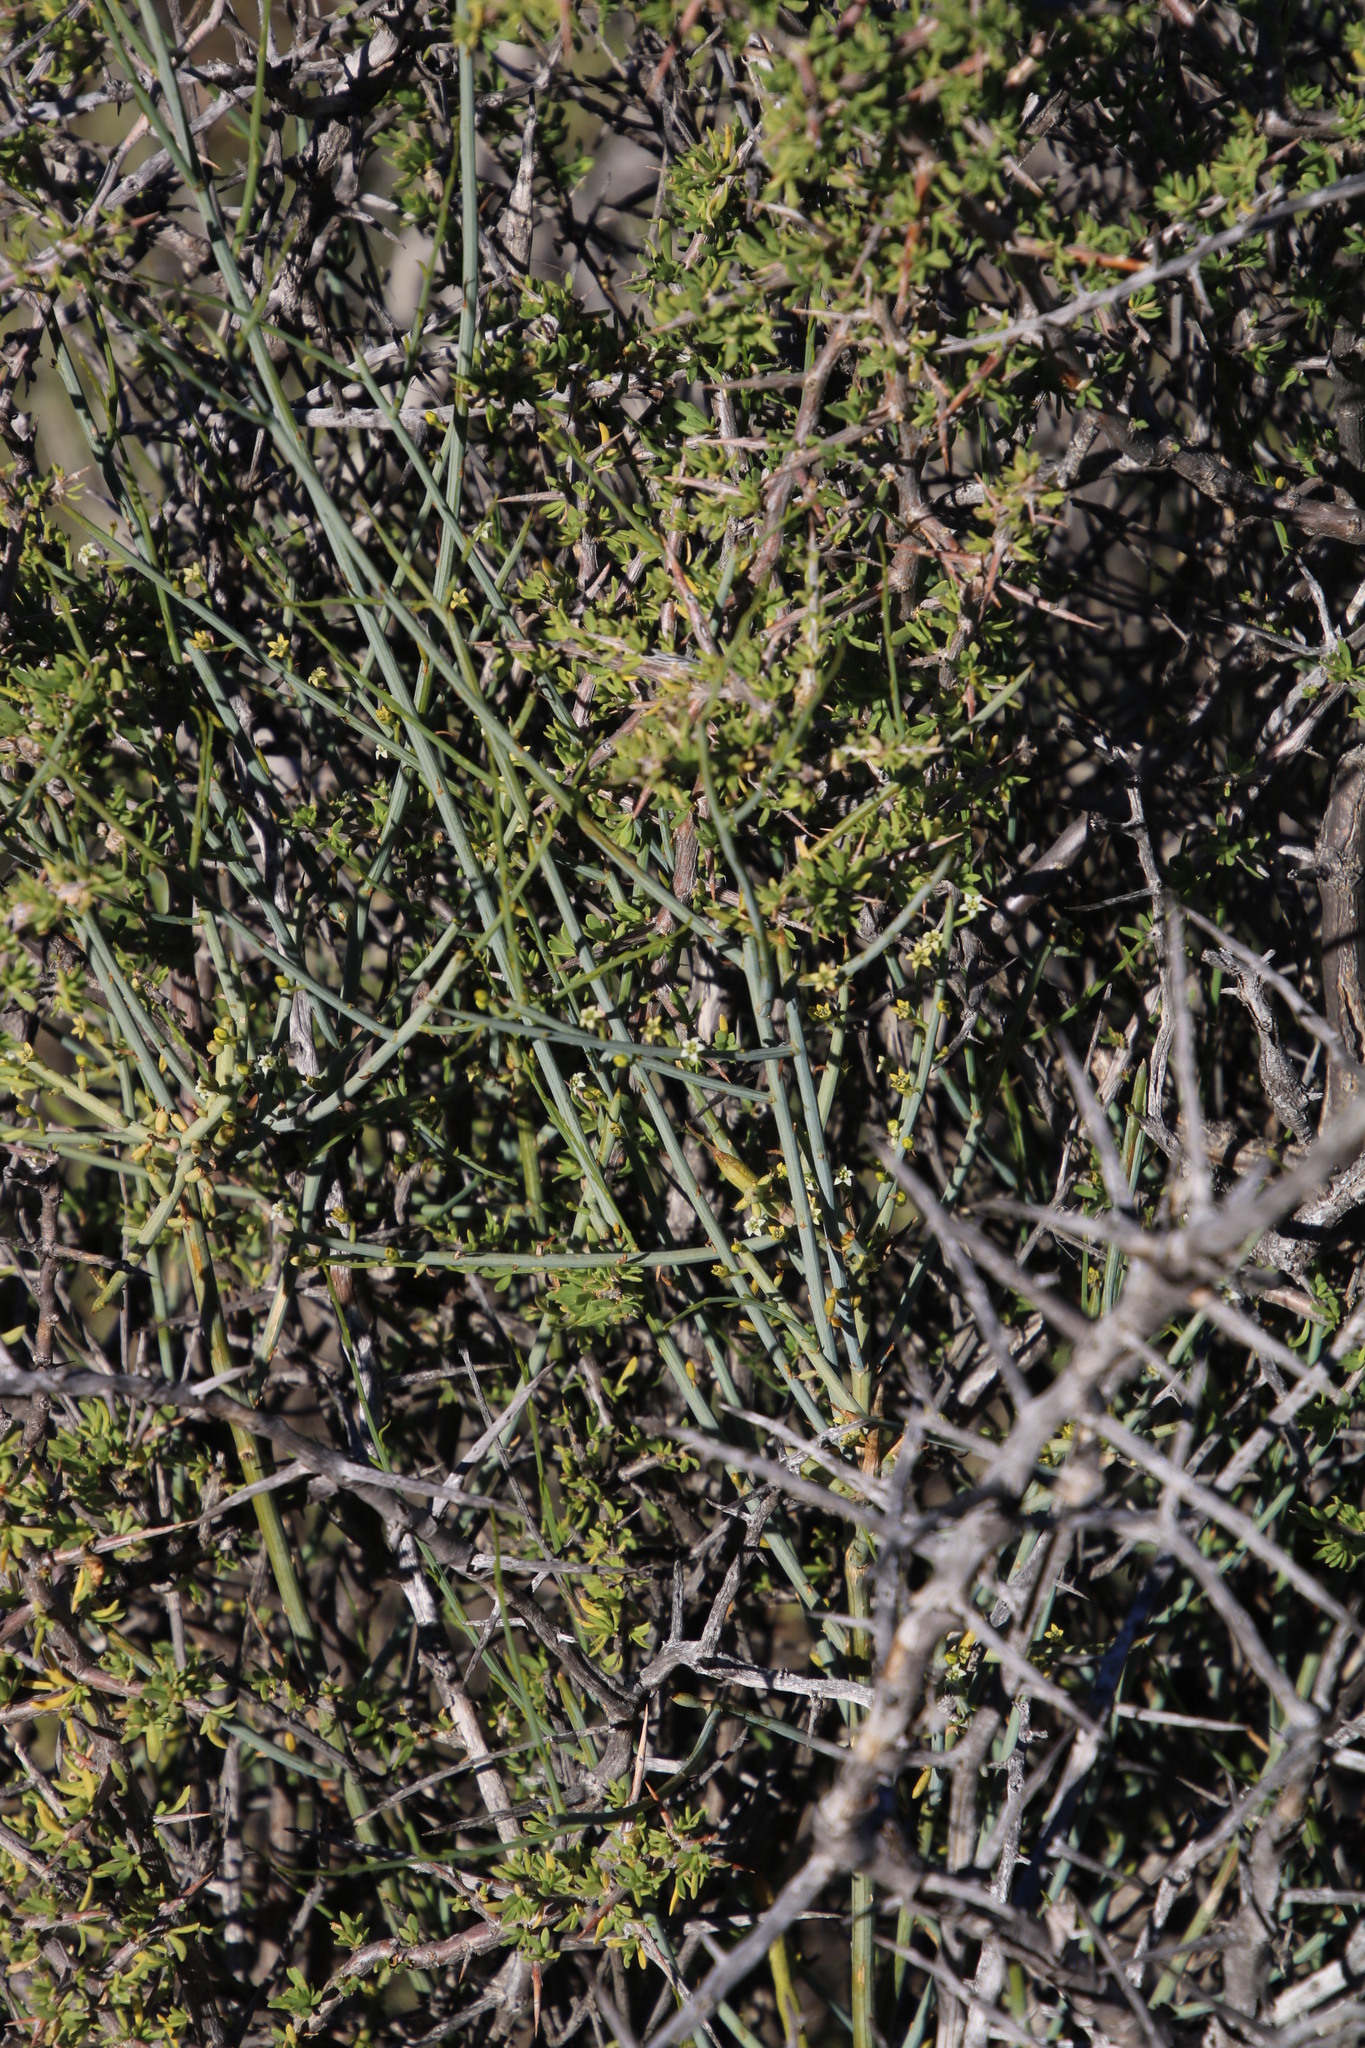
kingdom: Plantae
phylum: Tracheophyta
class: Magnoliopsida
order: Santalales
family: Thesiaceae
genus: Lacomucinaea
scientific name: Lacomucinaea lineata
